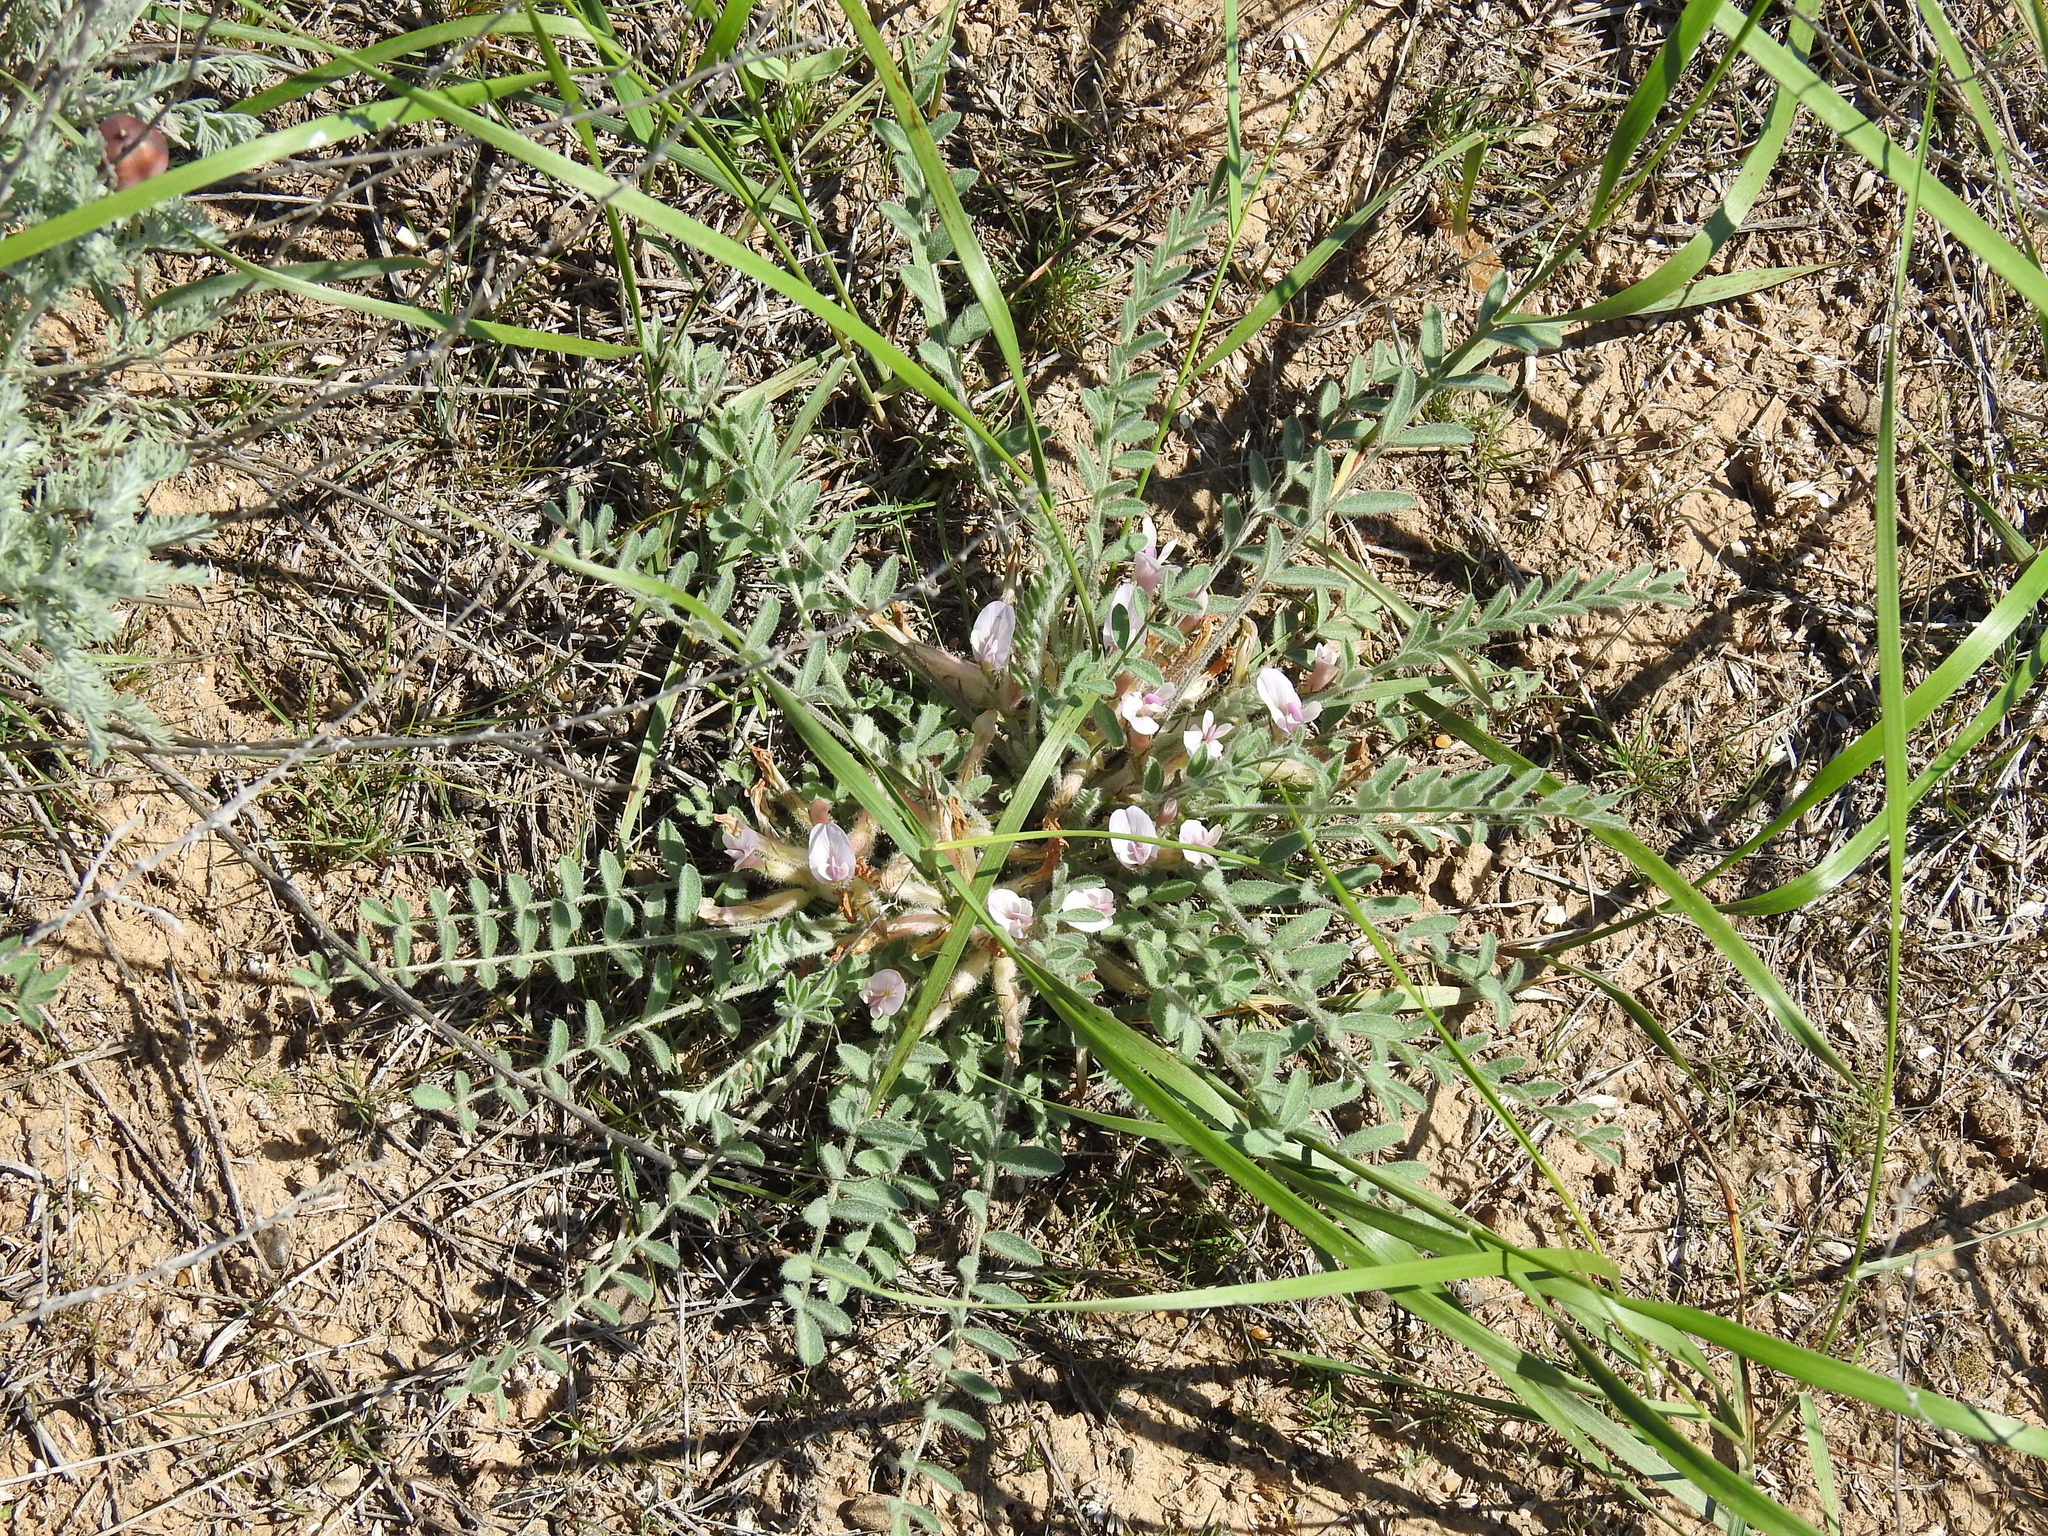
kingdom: Plantae
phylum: Tracheophyta
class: Magnoliopsida
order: Fabales
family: Fabaceae
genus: Astragalus
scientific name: Astragalus testiculatus
